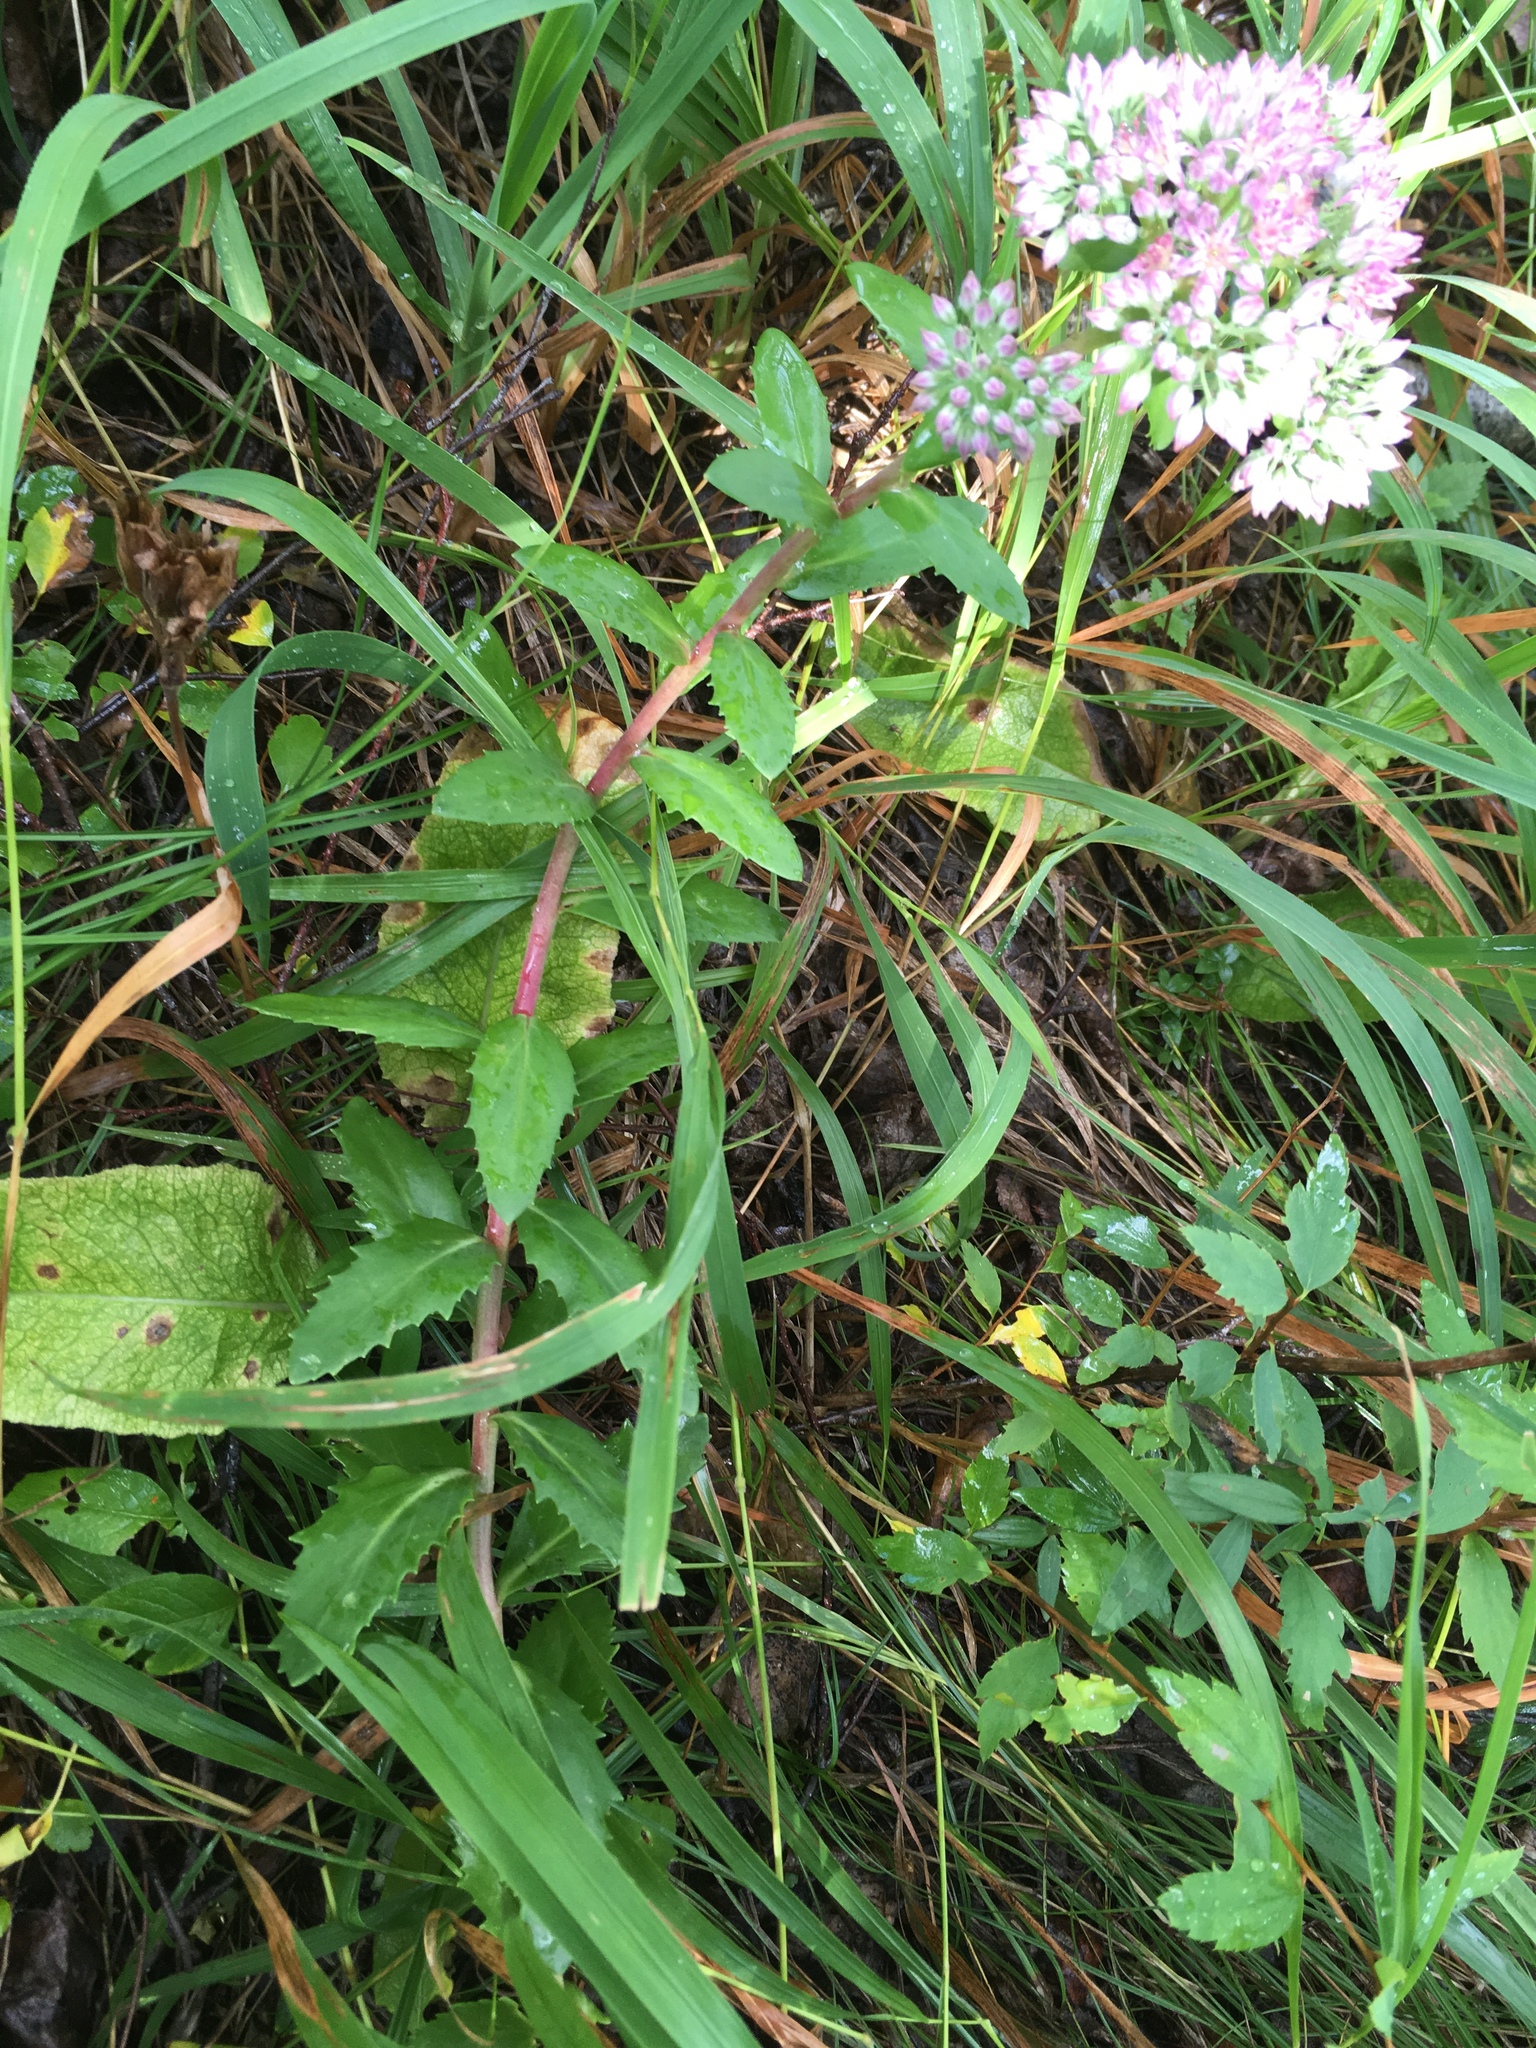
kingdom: Plantae
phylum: Tracheophyta
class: Magnoliopsida
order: Saxifragales
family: Crassulaceae
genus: Hylotelephium
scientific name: Hylotelephium telephium
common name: Live-forever
